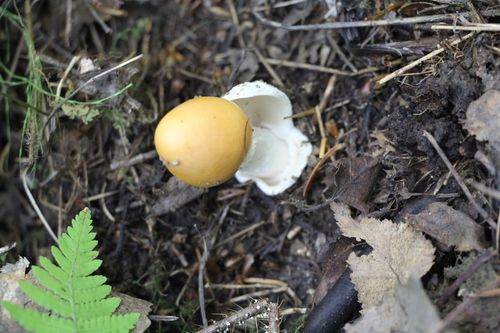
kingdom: Fungi
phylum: Basidiomycota
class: Agaricomycetes
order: Agaricales
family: Amanitaceae
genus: Amanita
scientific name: Amanita crocea
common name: Orange grisette
